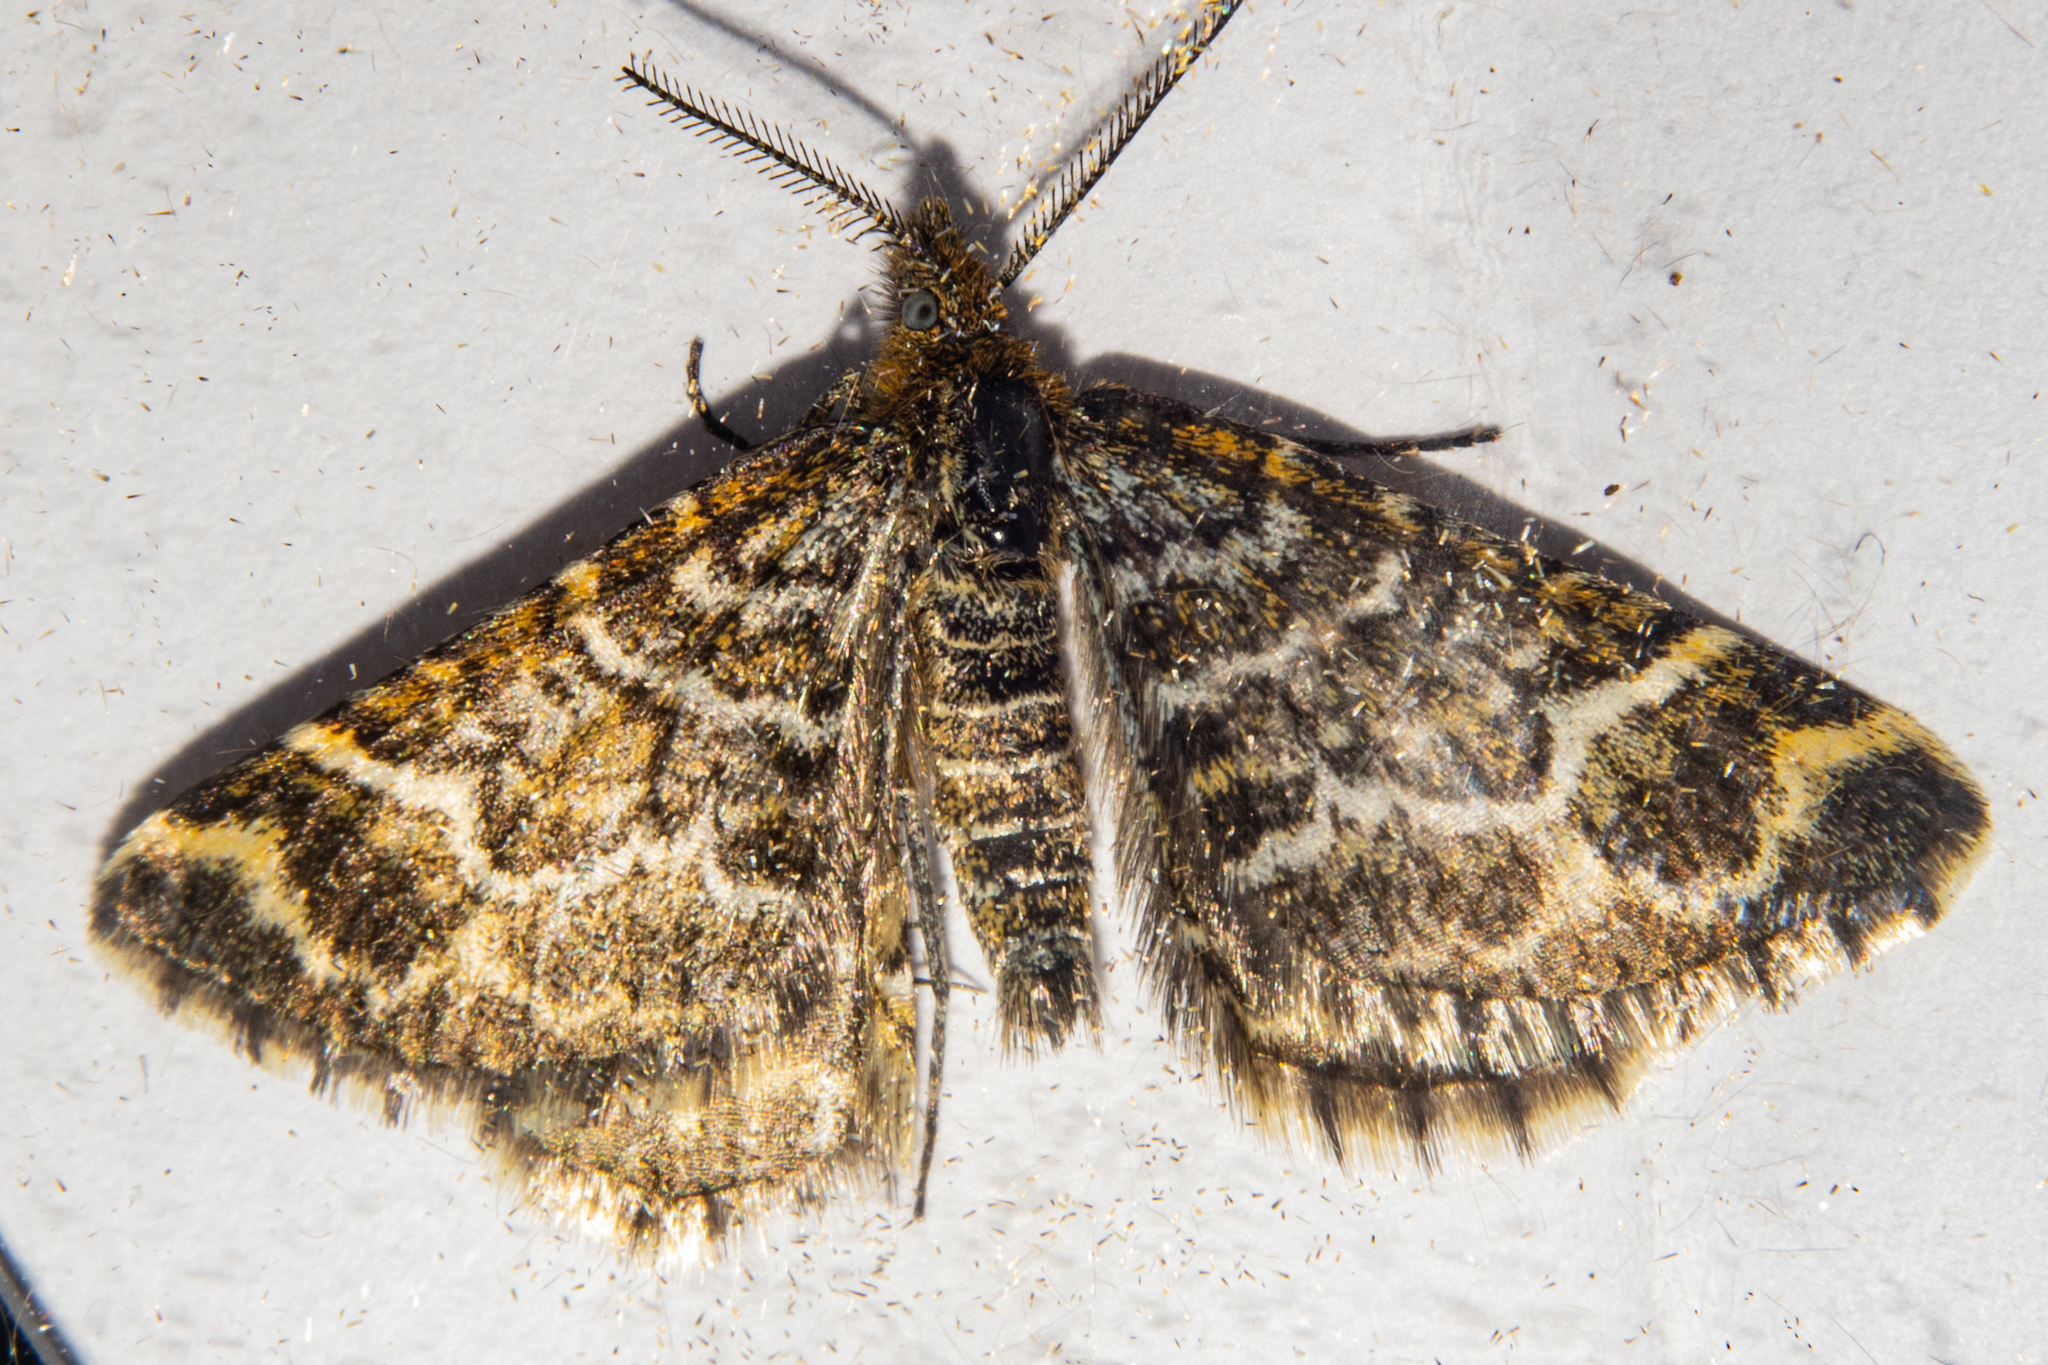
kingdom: Animalia
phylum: Arthropoda
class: Insecta
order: Lepidoptera
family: Geometridae
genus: Notoreas
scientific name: Notoreas paradelpha
